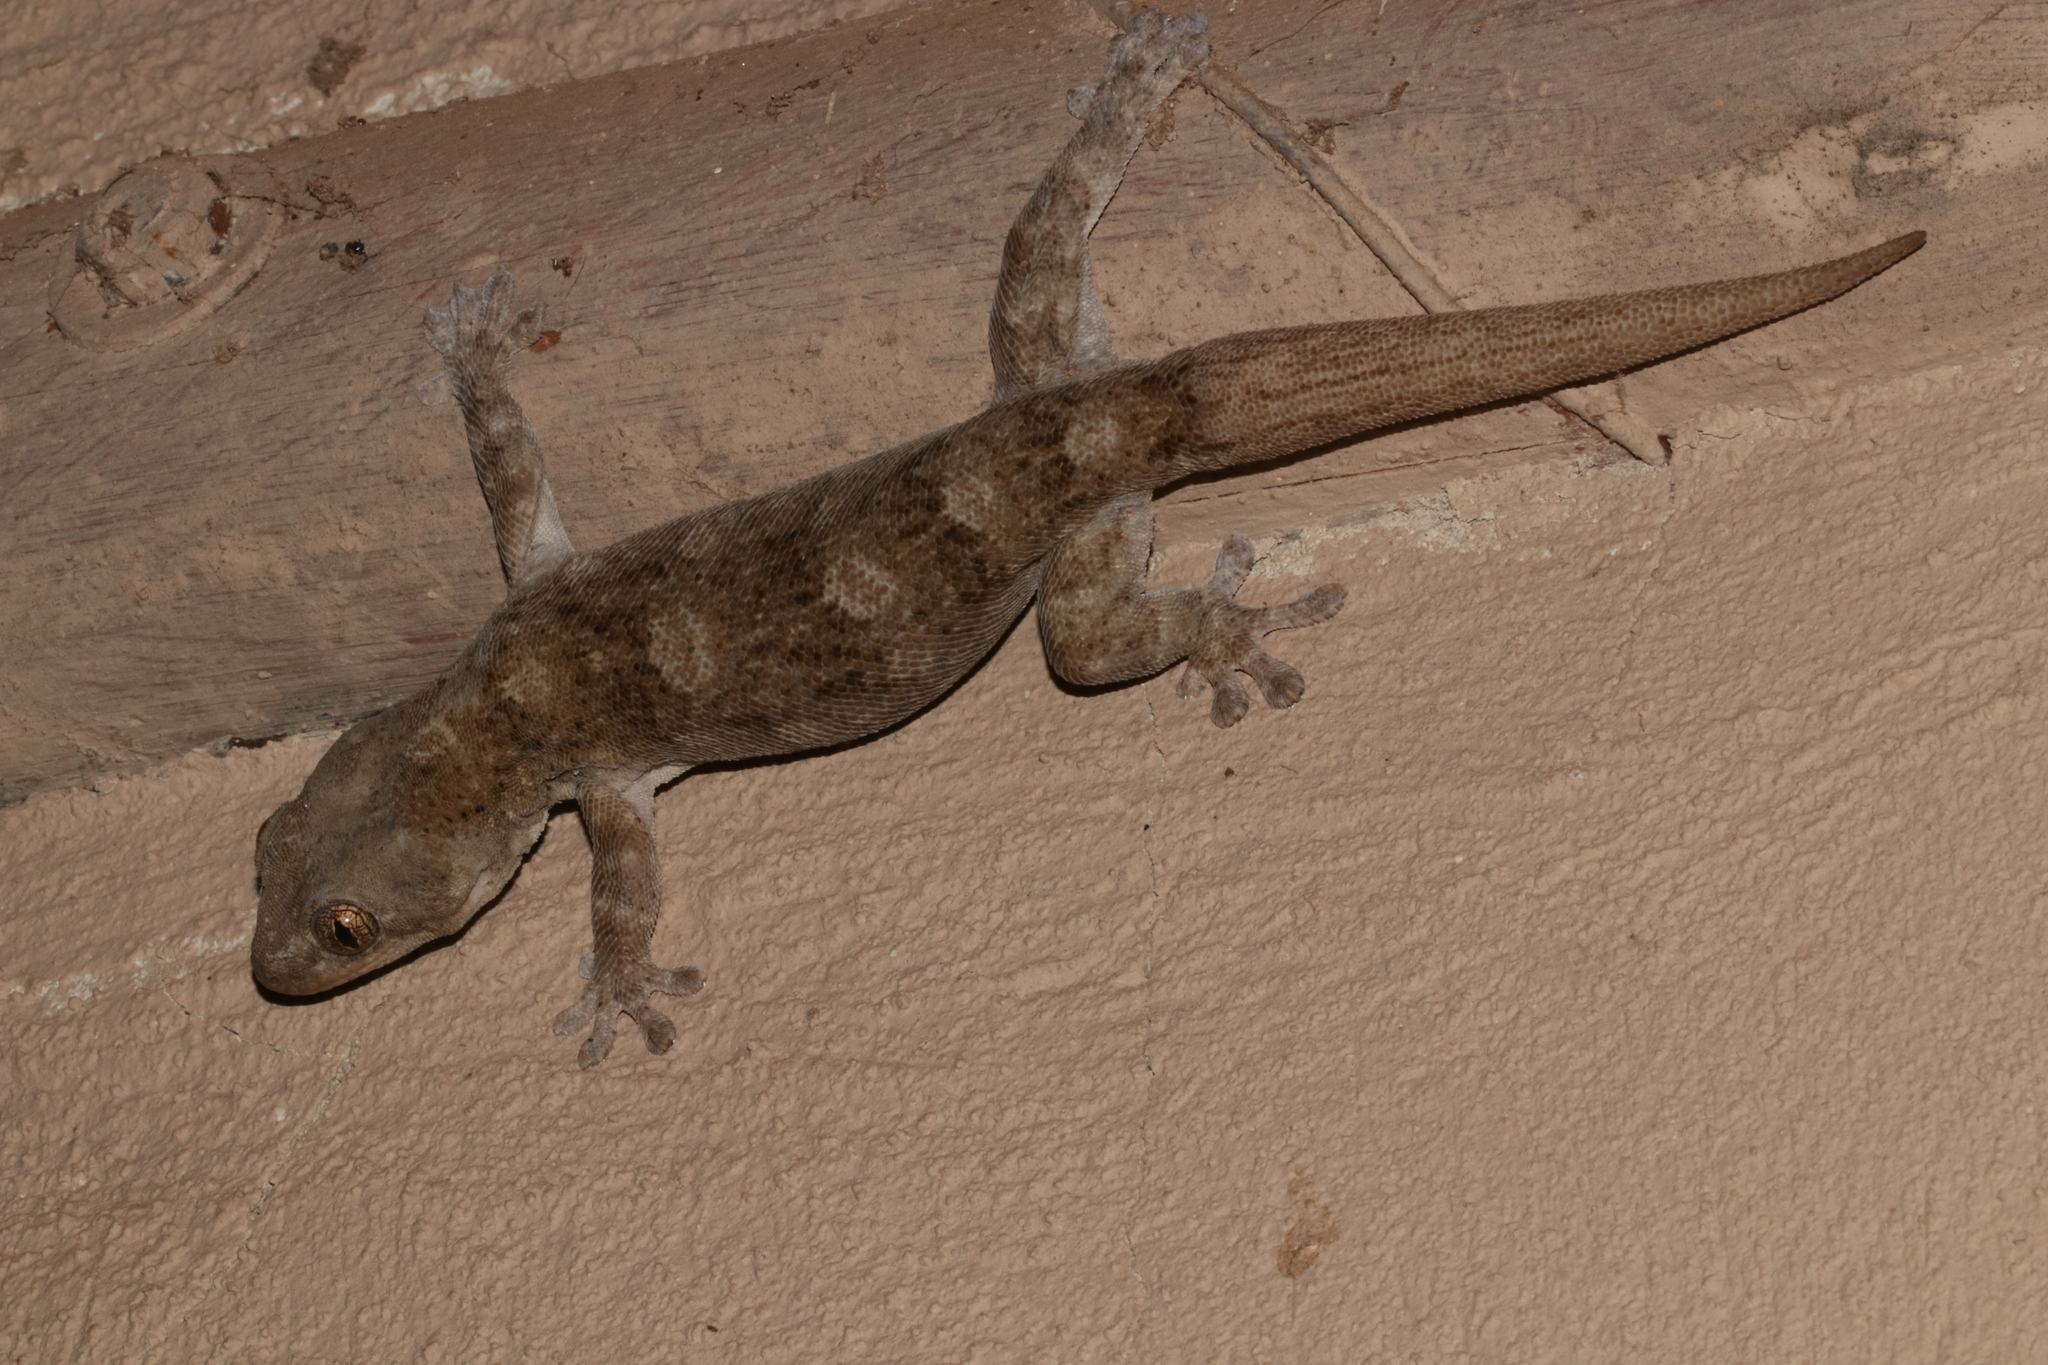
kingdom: Animalia
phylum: Chordata
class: Squamata
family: Gekkonidae
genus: Homopholis
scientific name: Homopholis walbergii
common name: Wahlberg’s velvet gecko
